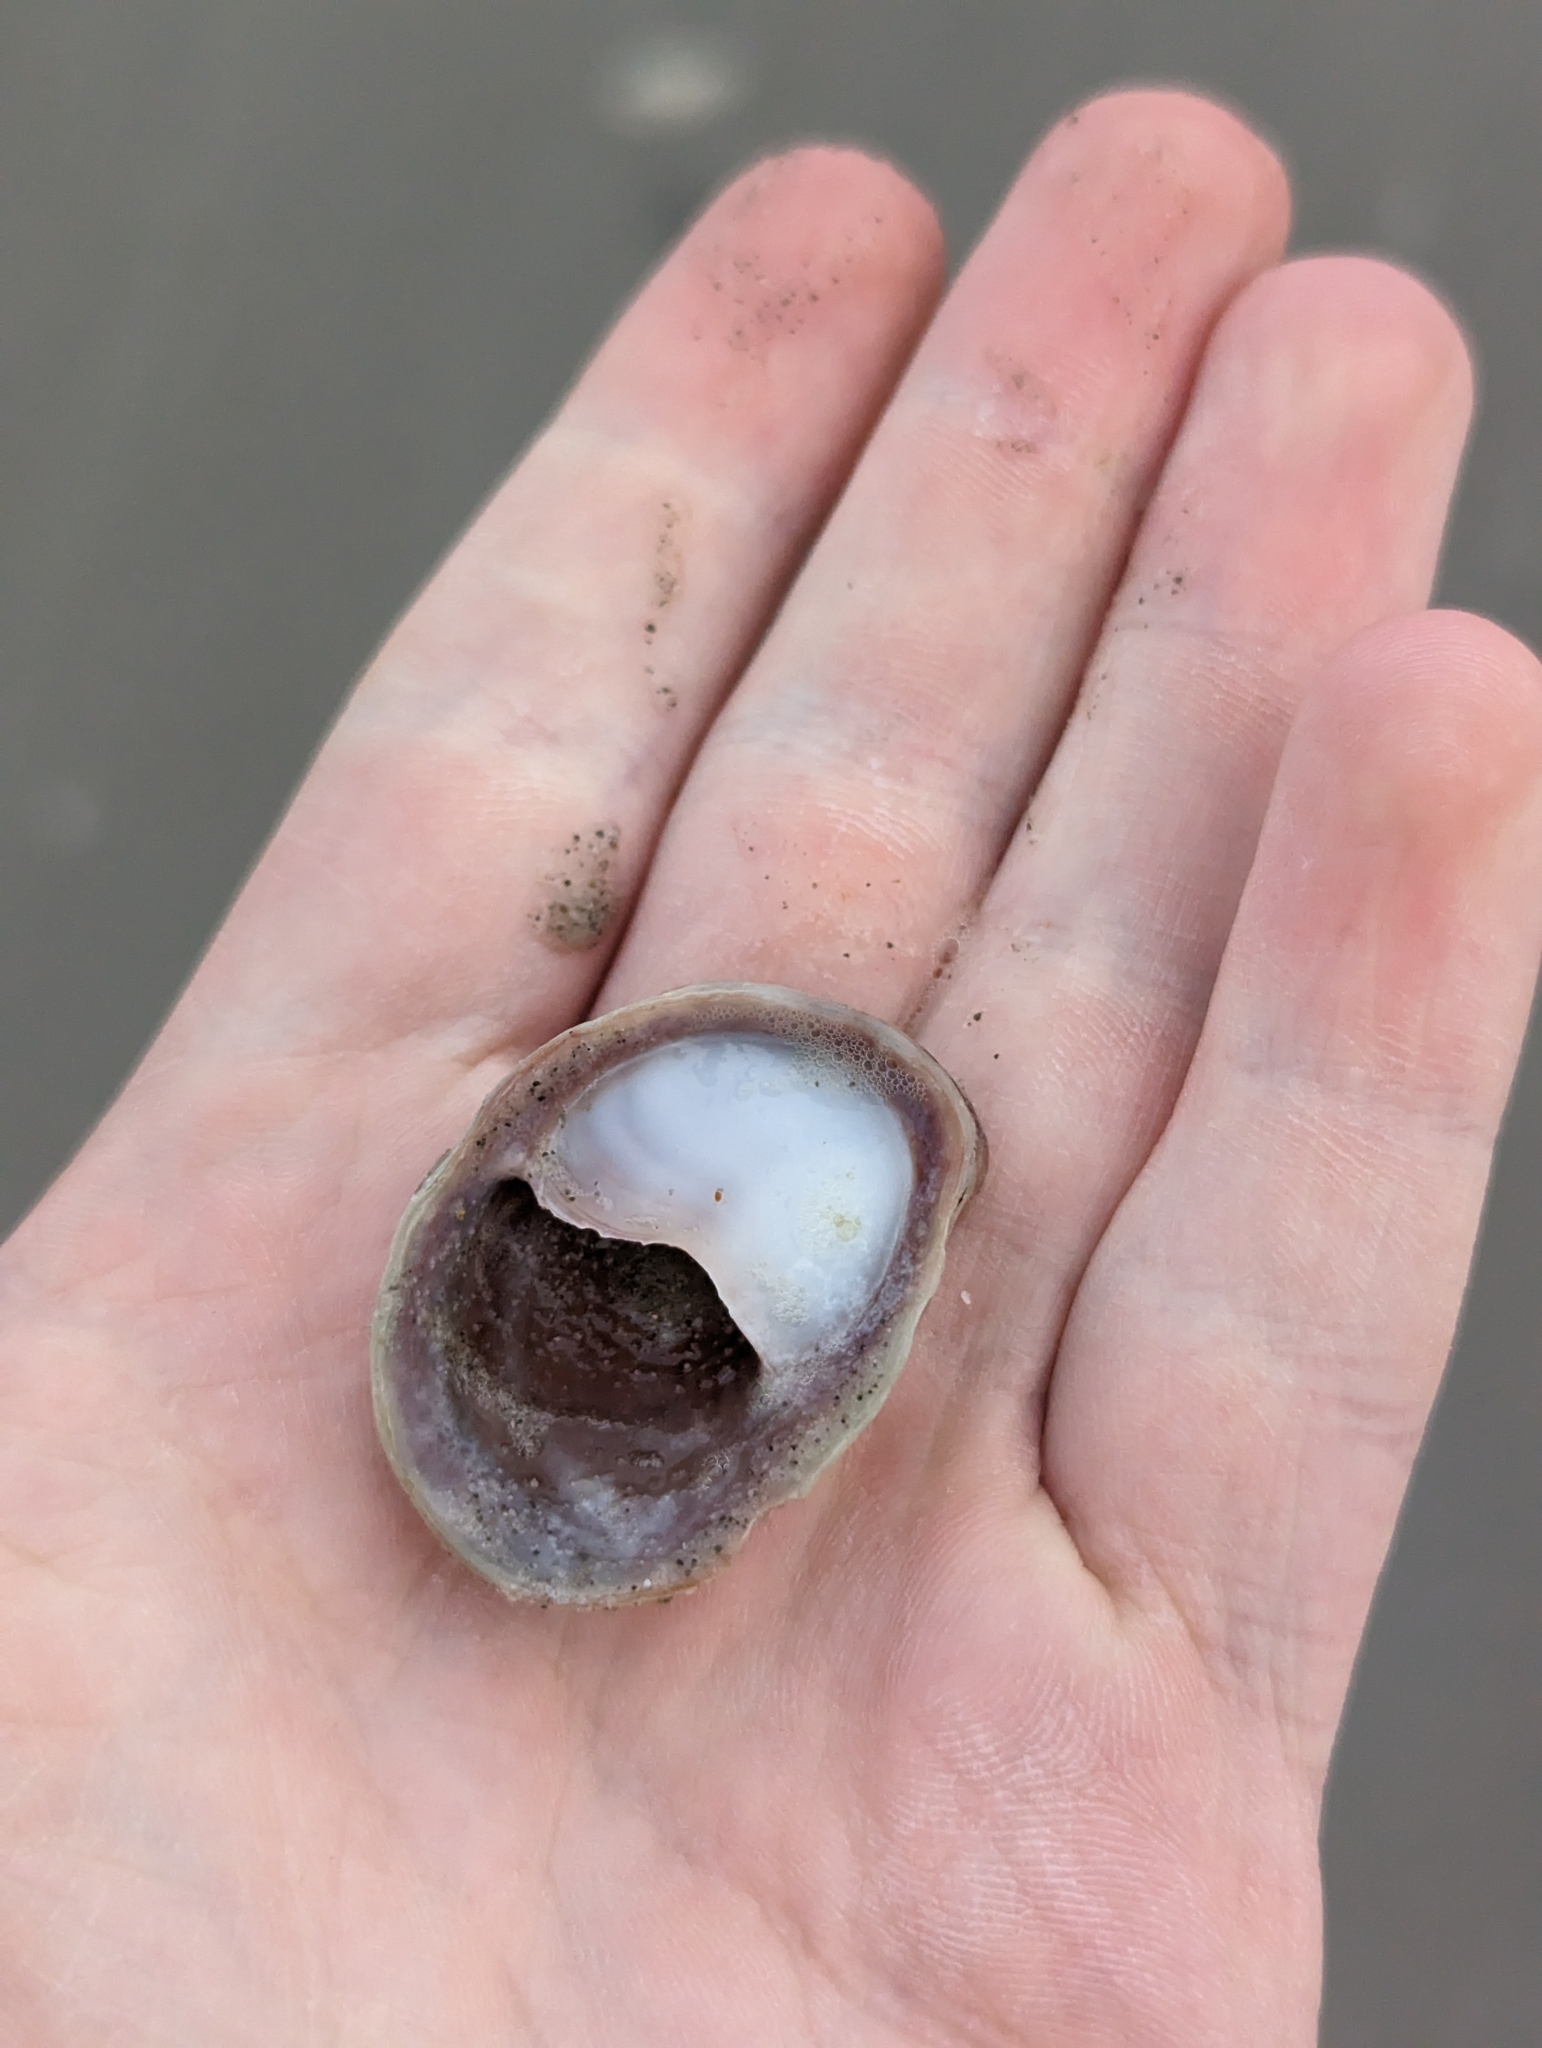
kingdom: Animalia
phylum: Mollusca
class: Gastropoda
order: Littorinimorpha
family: Calyptraeidae
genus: Crepidula
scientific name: Crepidula fornicata
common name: Slipper limpet
